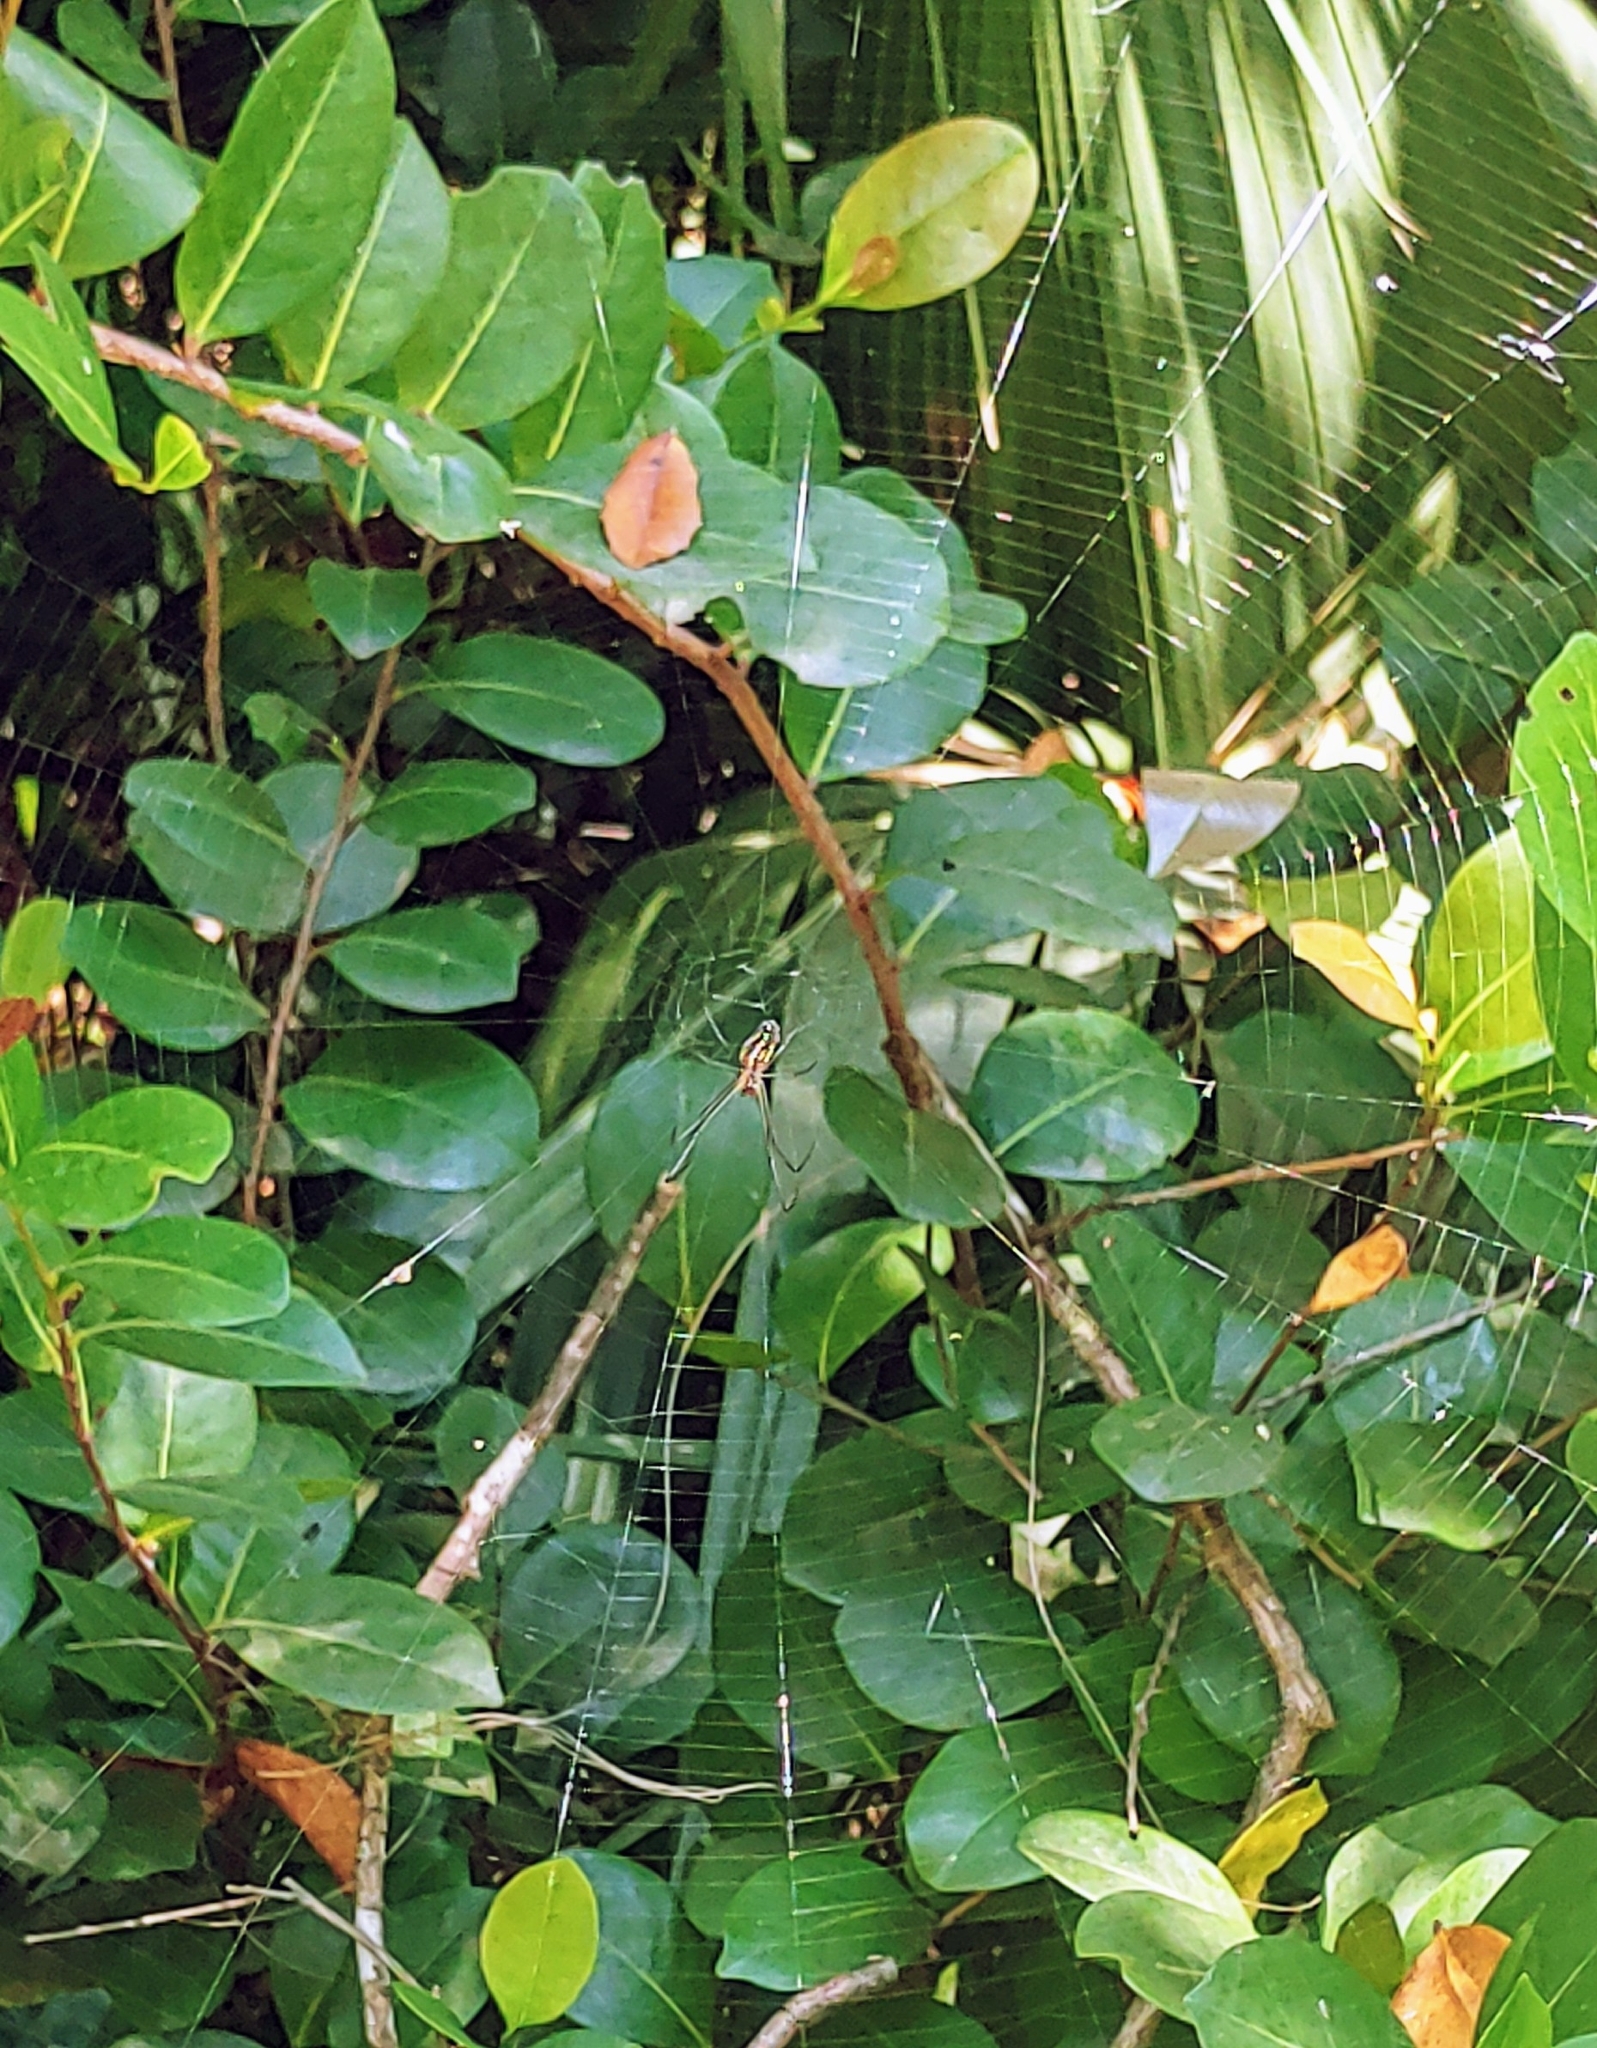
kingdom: Animalia
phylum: Arthropoda
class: Arachnida
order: Araneae
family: Tetragnathidae
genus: Leucauge
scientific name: Leucauge argyra
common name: Longjawed orb weavers
